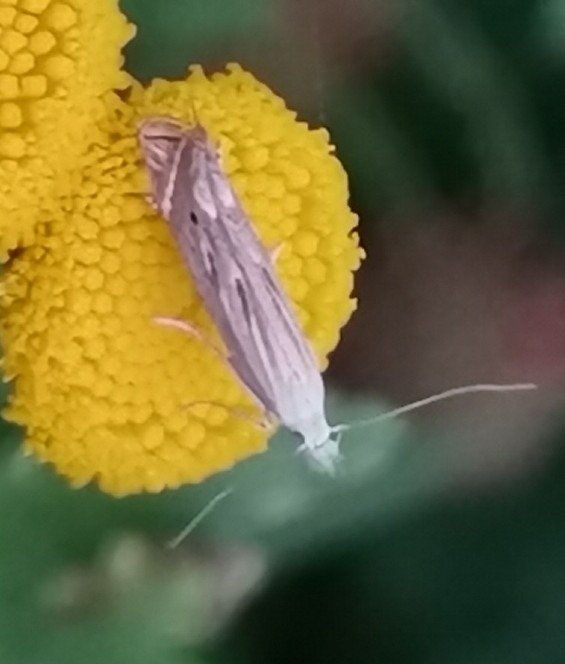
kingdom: Animalia
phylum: Arthropoda
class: Insecta
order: Lepidoptera
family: Gelechiidae
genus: Isophrictis
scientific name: Isophrictis striatella
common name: White-border neb
